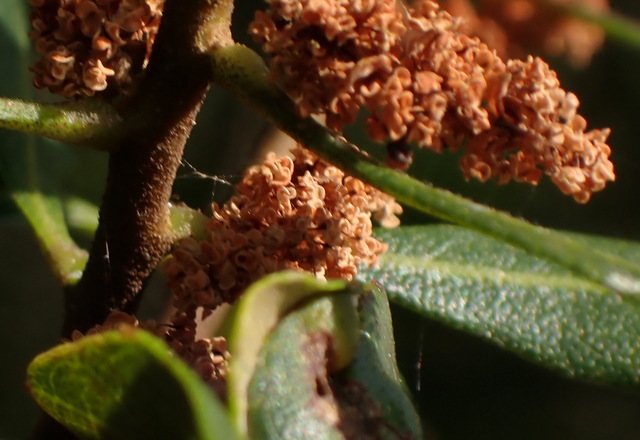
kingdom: Plantae
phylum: Tracheophyta
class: Magnoliopsida
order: Fagales
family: Myricaceae
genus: Morella
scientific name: Morella cerifera
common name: Wax myrtle
